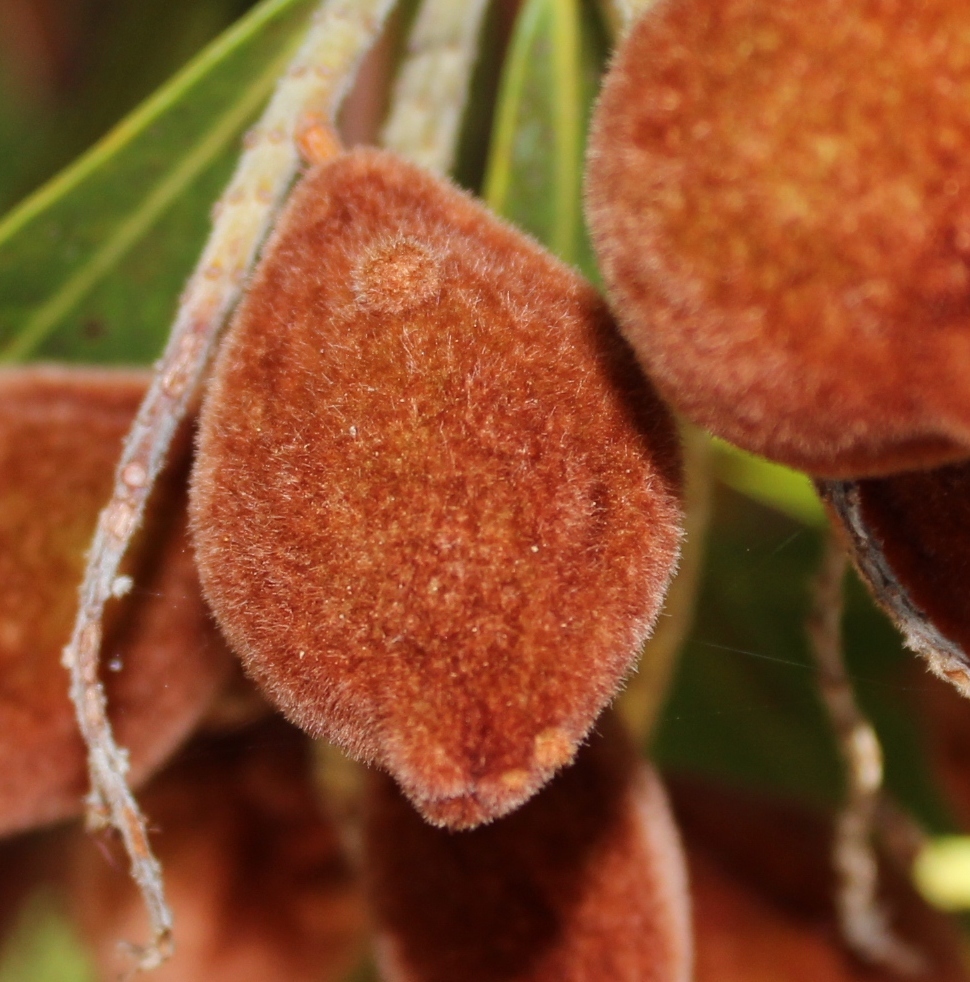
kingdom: Plantae
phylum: Tracheophyta
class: Magnoliopsida
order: Proteales
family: Proteaceae
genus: Brabejum
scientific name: Brabejum stellatifolium
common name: Wild almond
